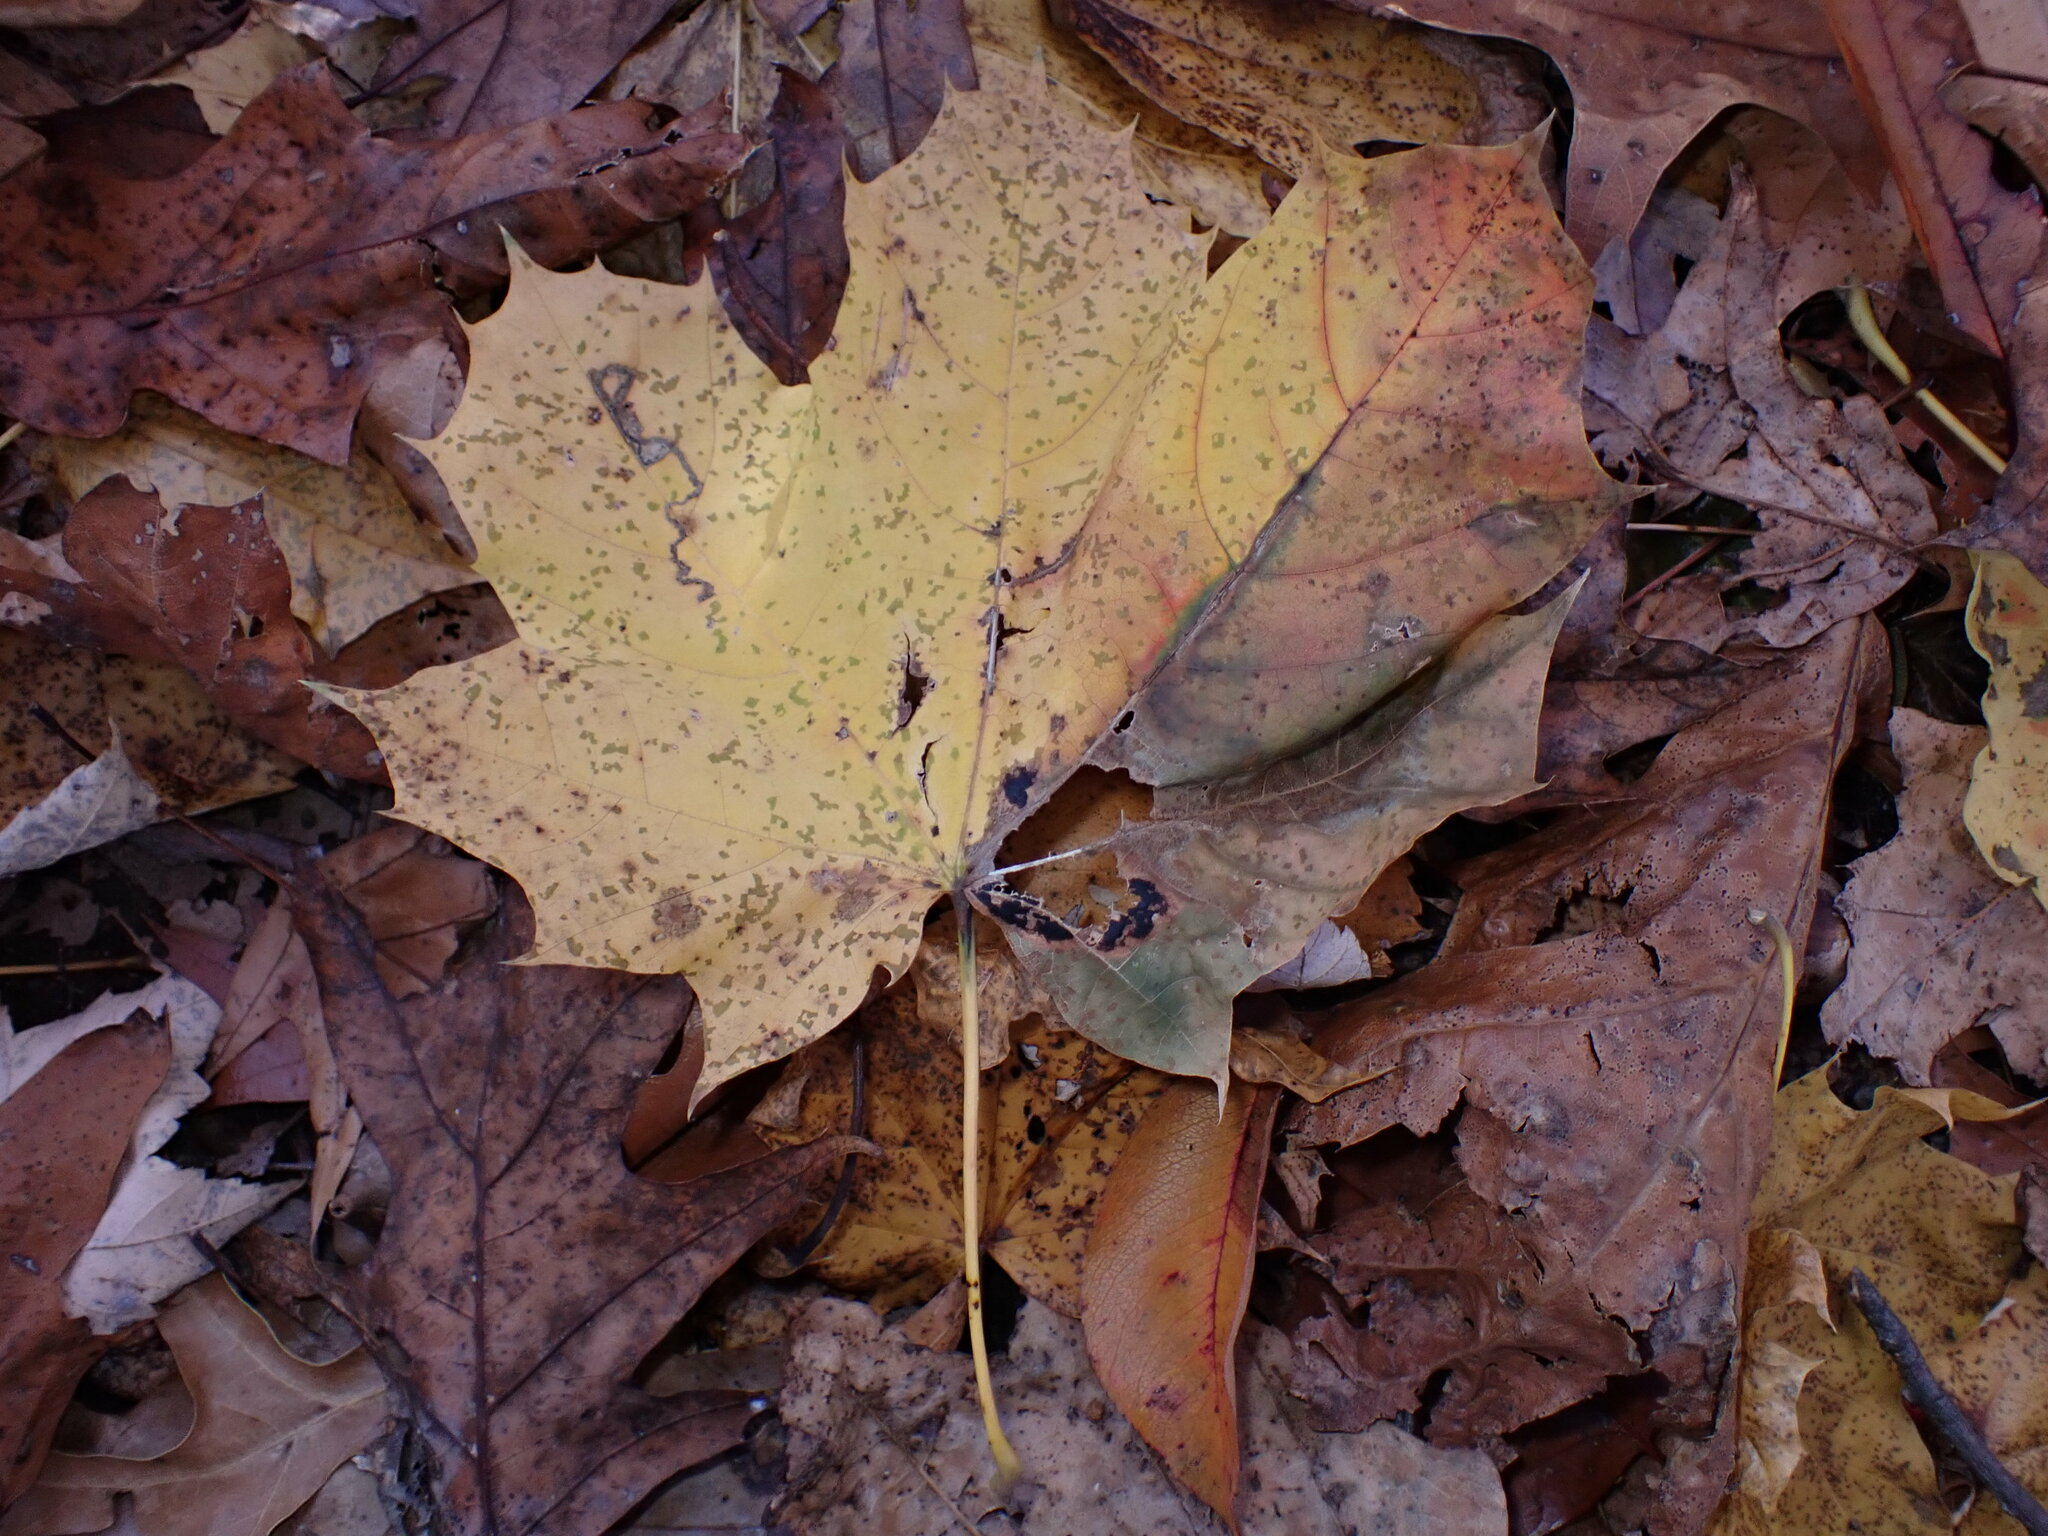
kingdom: Animalia
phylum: Arthropoda
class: Insecta
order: Lepidoptera
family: Nepticulidae
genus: Glaucolepis
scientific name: Glaucolepis saccharella
